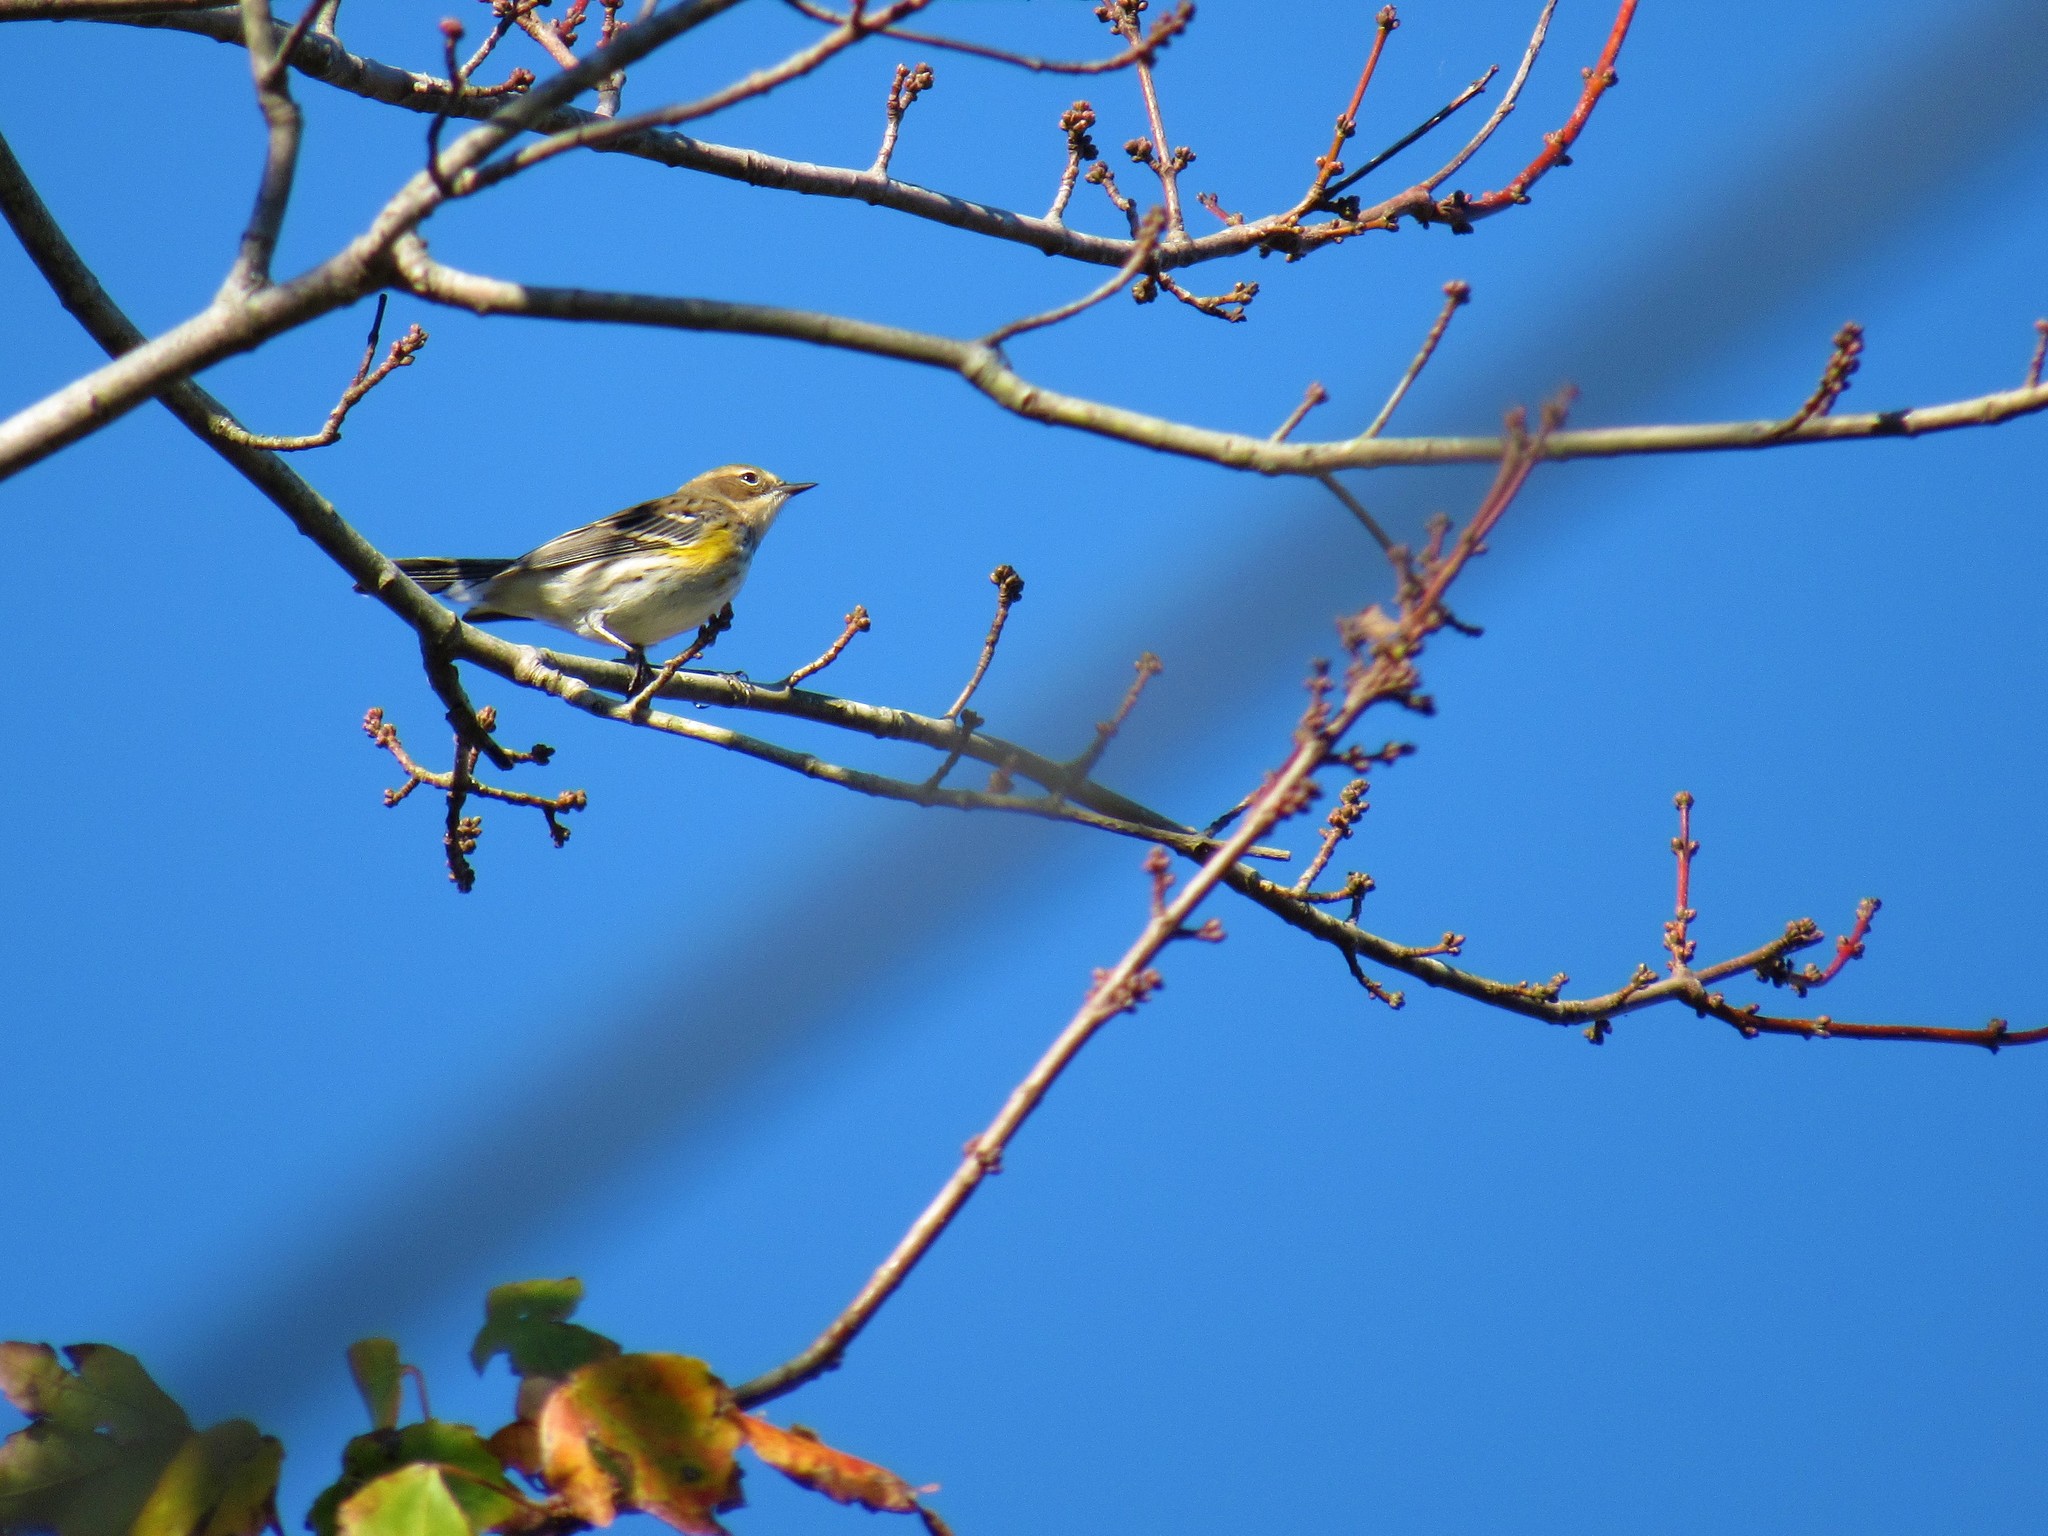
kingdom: Animalia
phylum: Chordata
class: Aves
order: Passeriformes
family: Parulidae
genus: Setophaga
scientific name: Setophaga coronata
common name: Myrtle warbler
